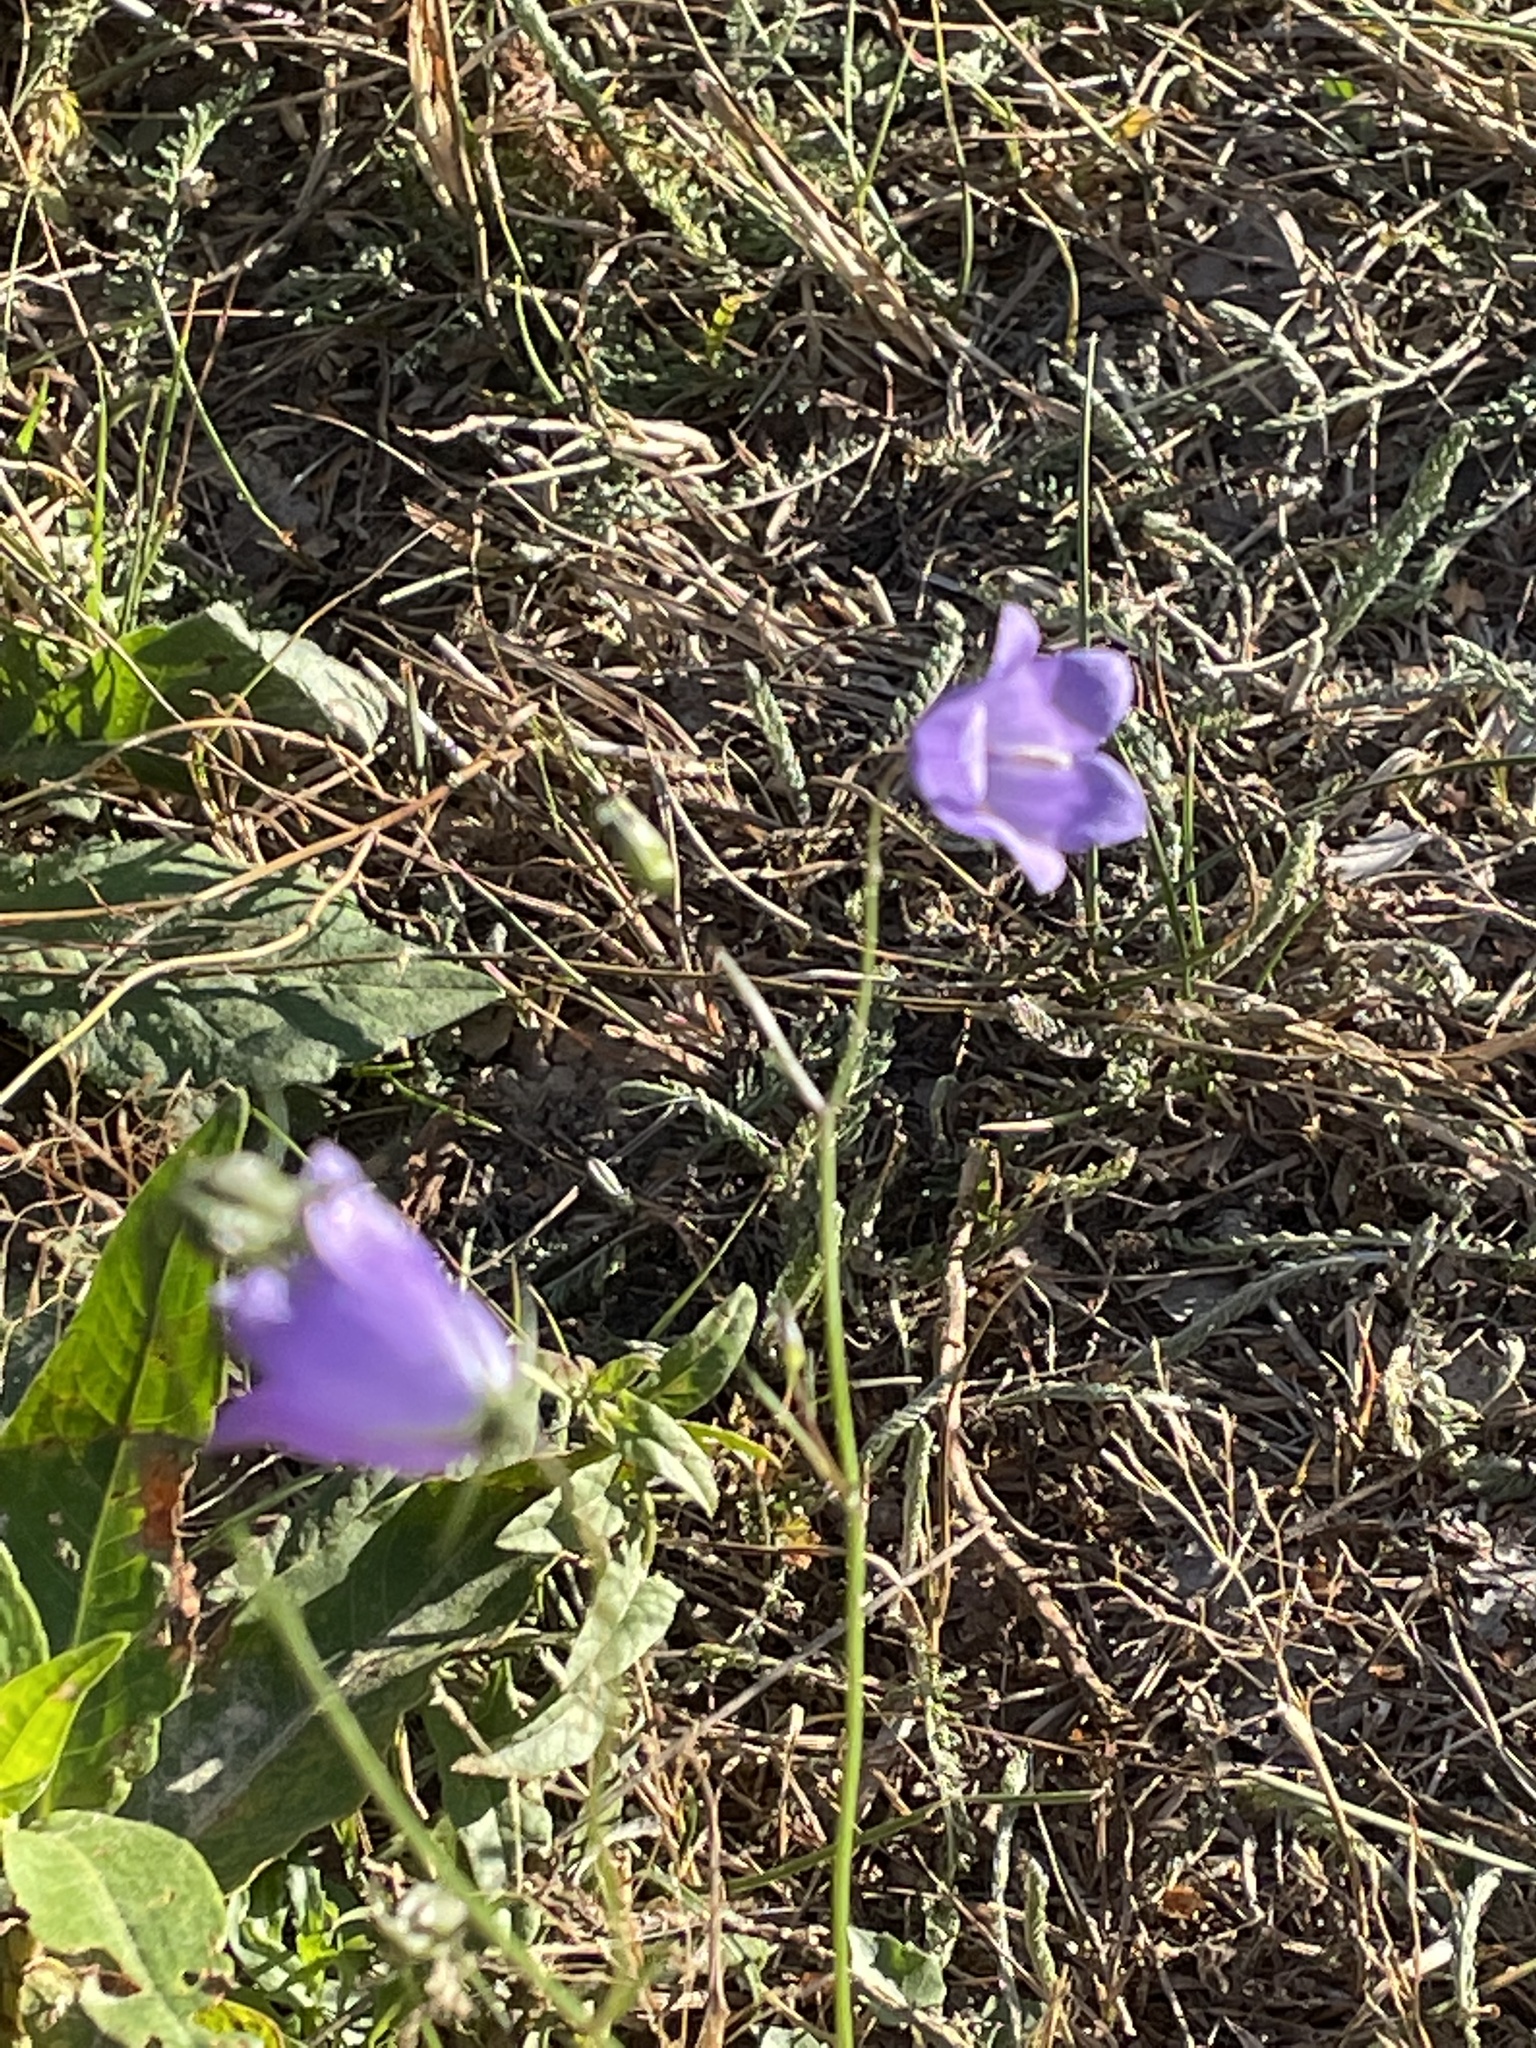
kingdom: Plantae
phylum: Tracheophyta
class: Magnoliopsida
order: Asterales
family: Campanulaceae
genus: Campanula
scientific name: Campanula rotundifolia
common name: Harebell
